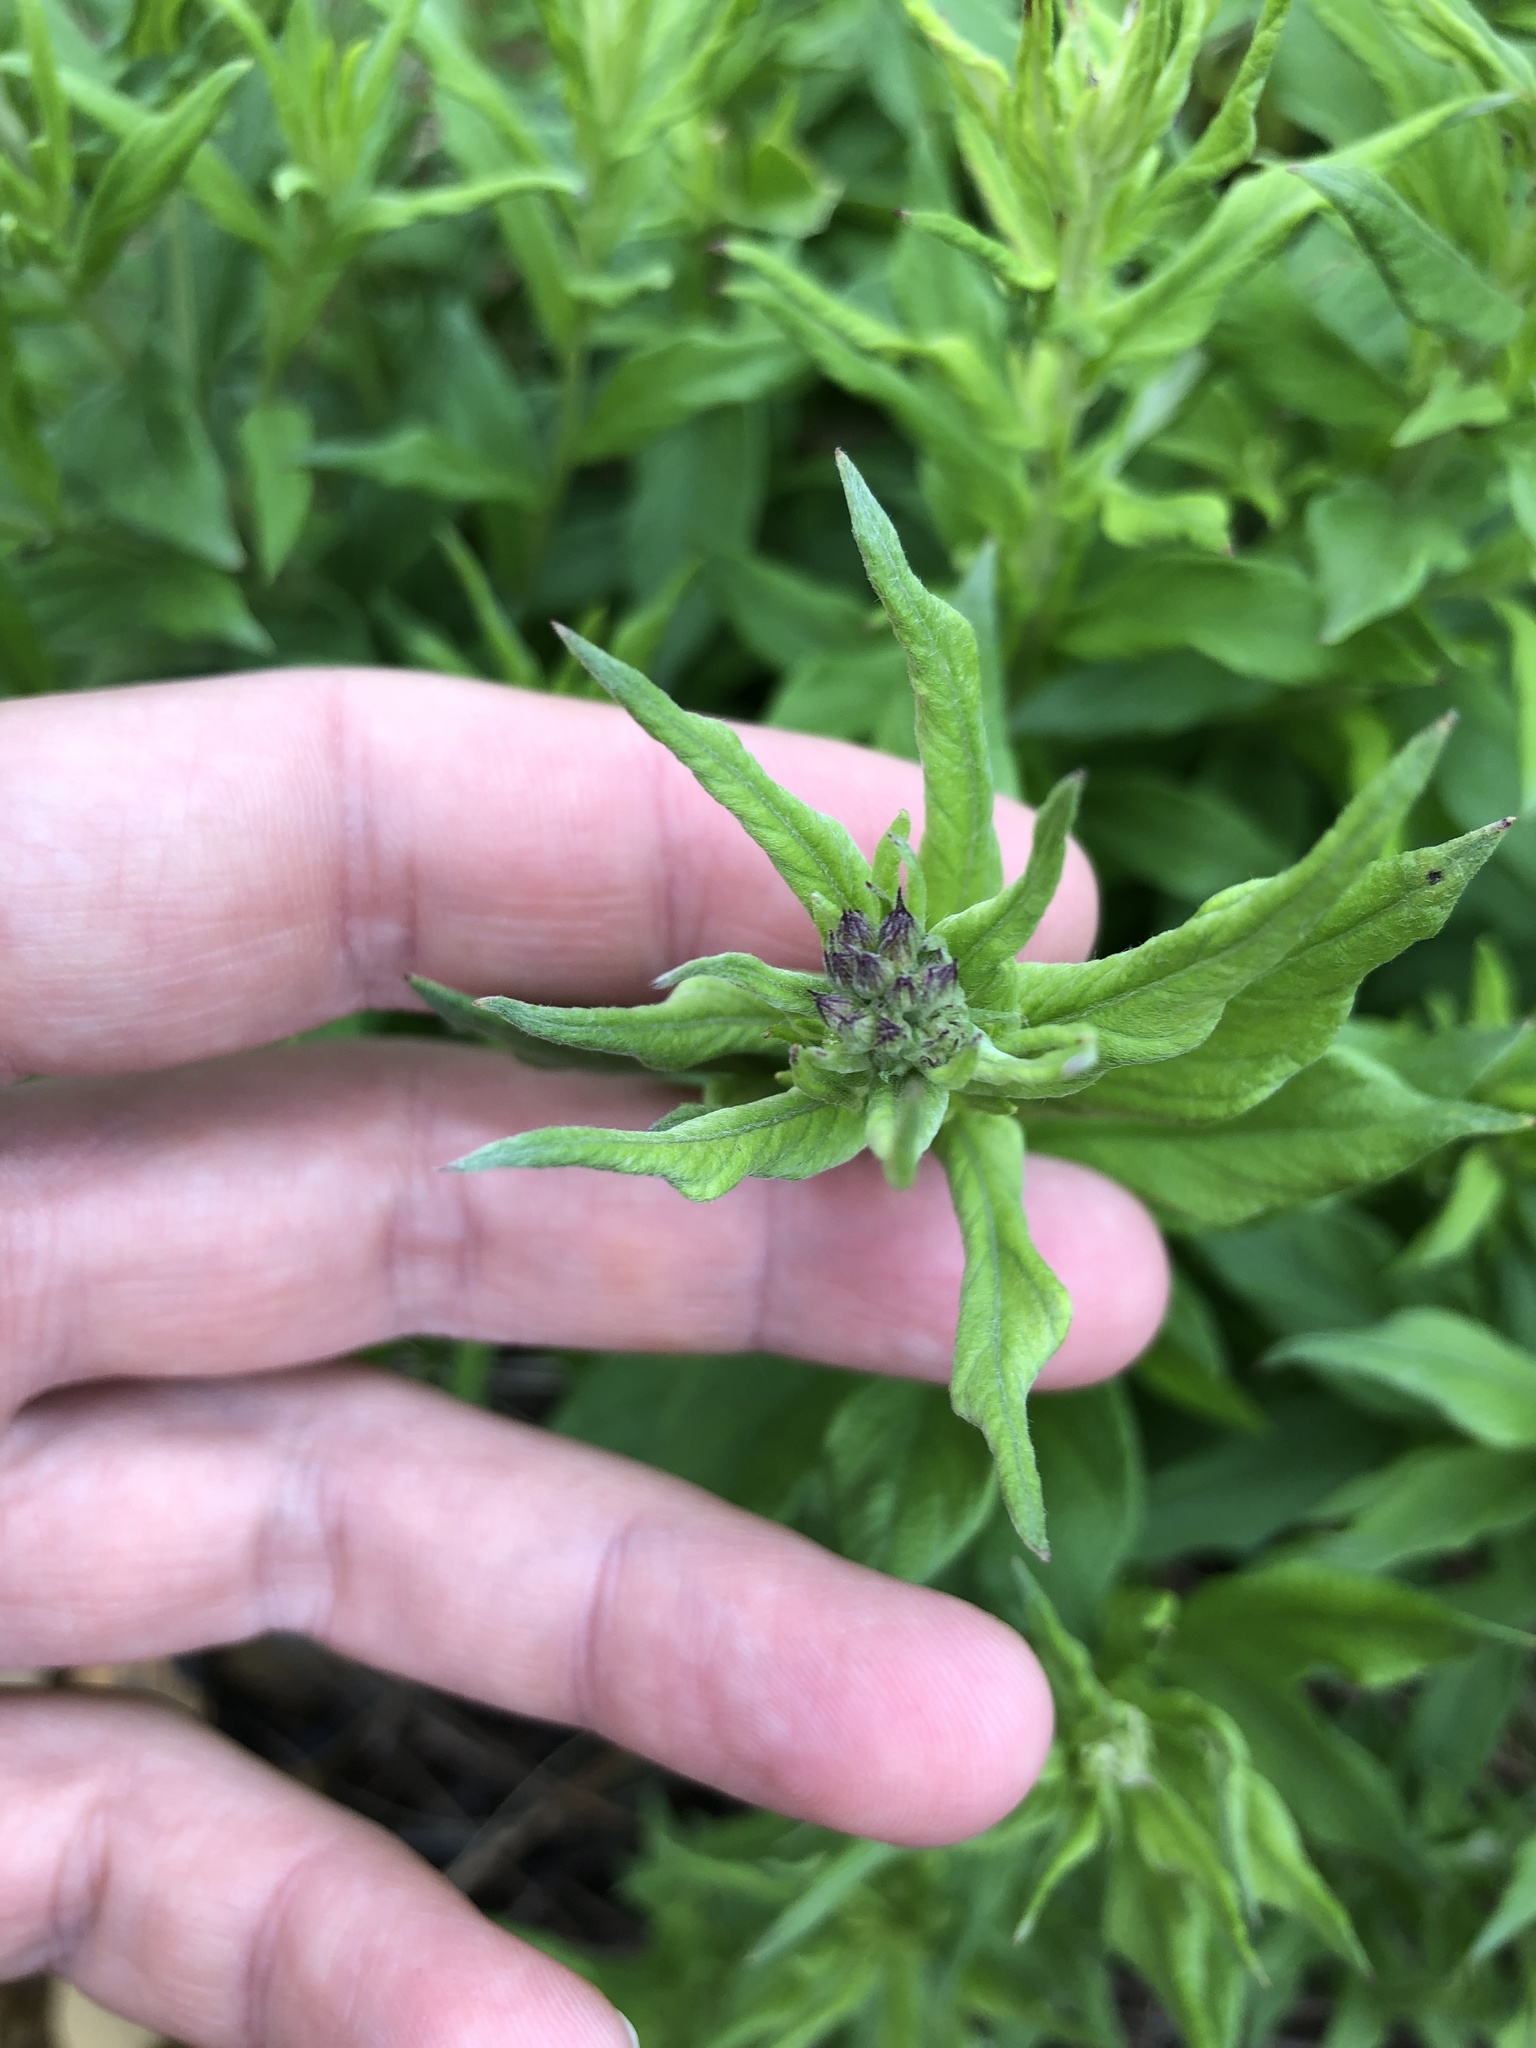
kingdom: Plantae
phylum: Tracheophyta
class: Magnoliopsida
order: Asterales
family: Asteraceae
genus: Hilliardiella
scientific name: Hilliardiella aristata
